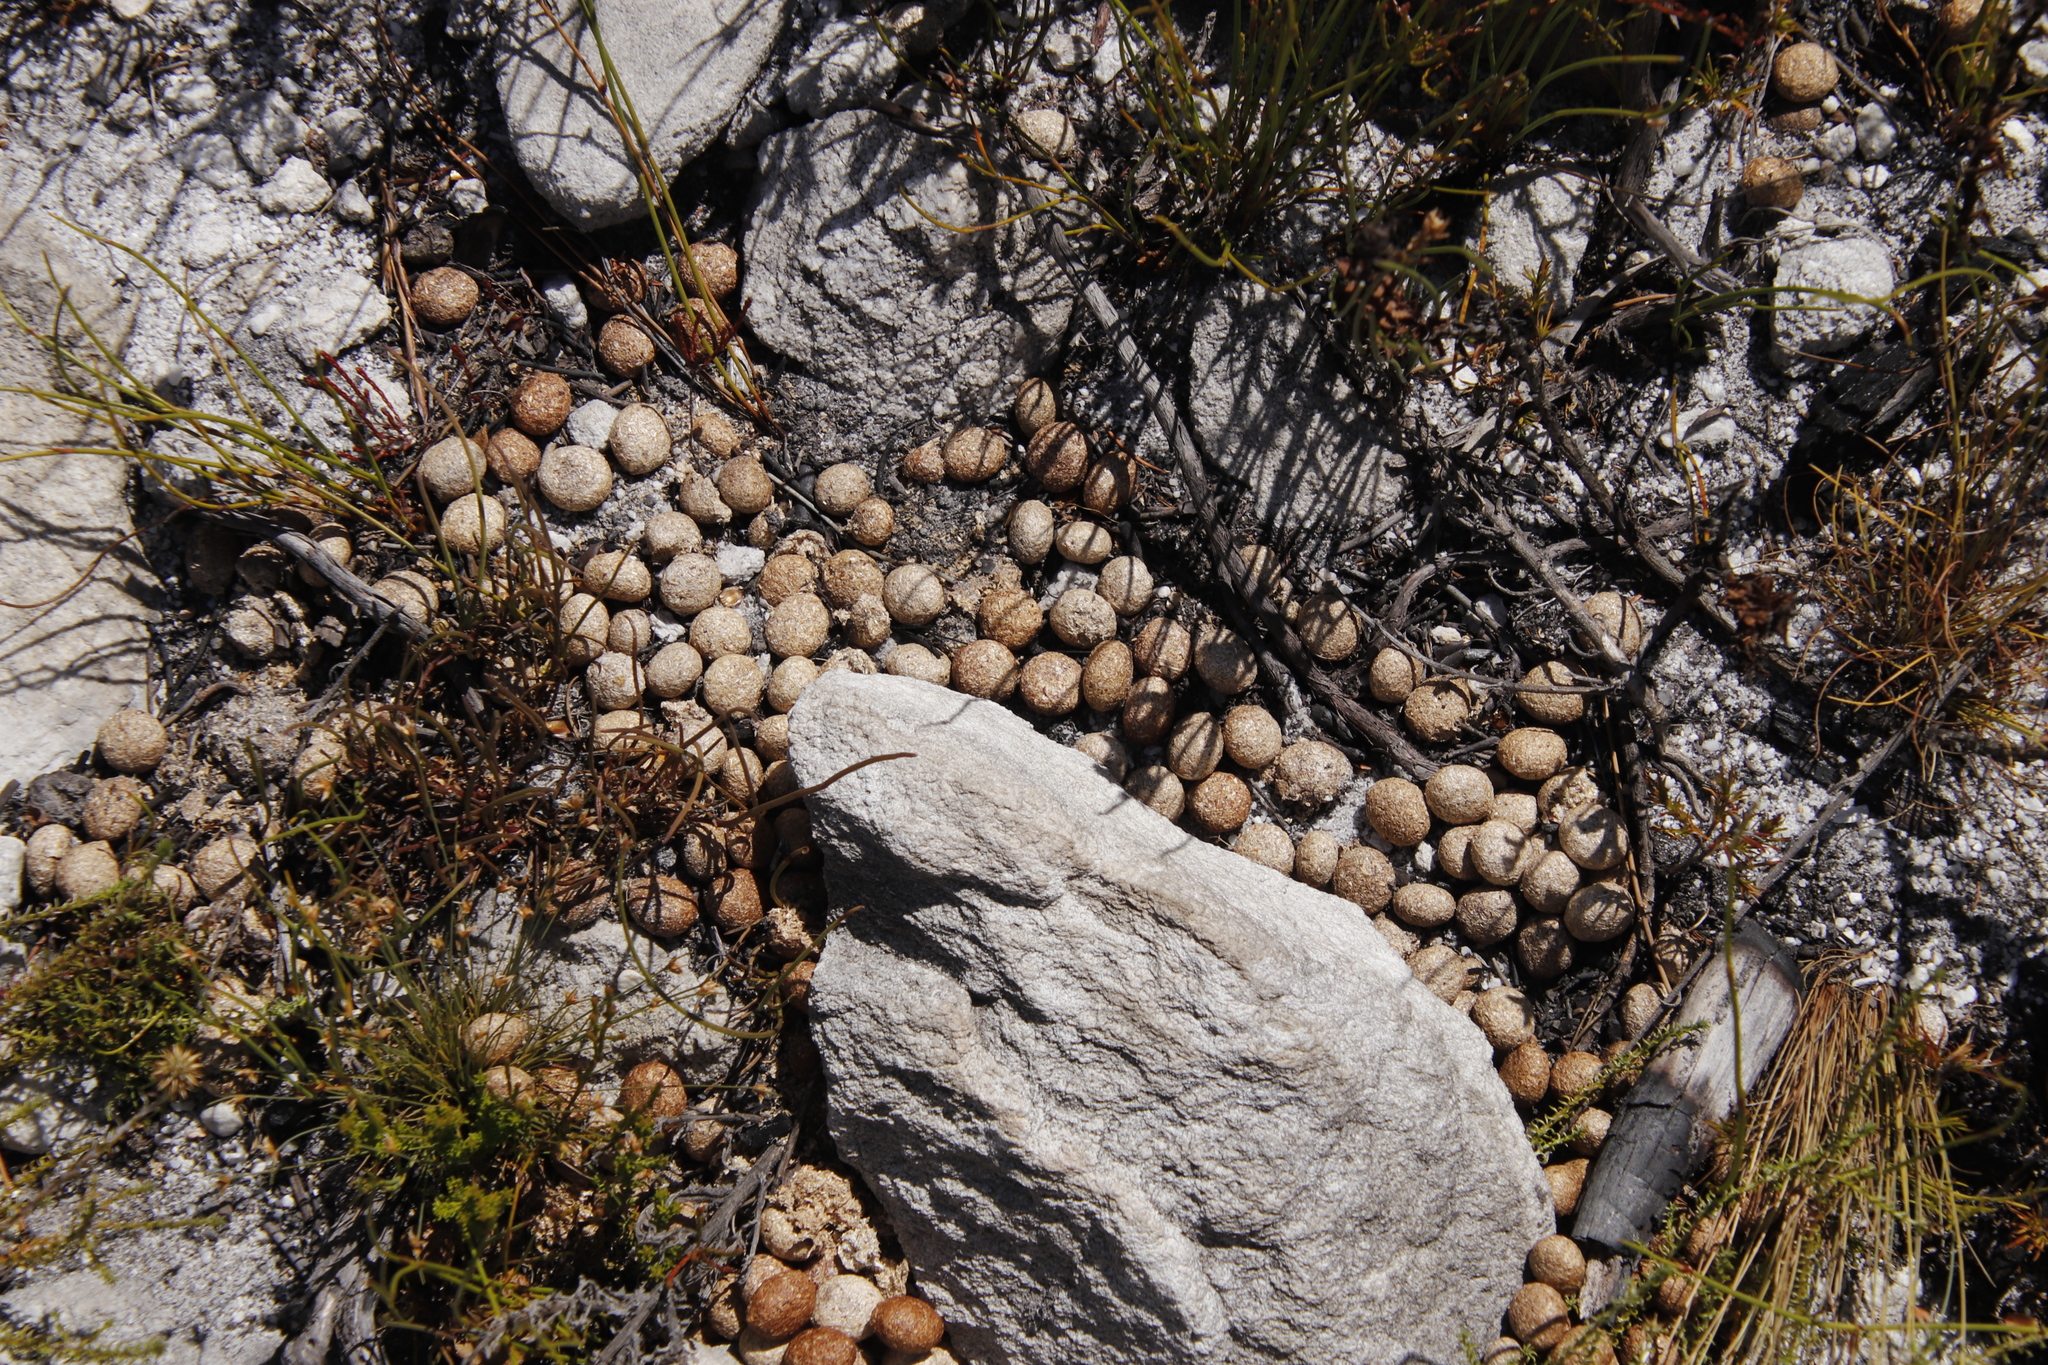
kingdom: Animalia
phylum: Chordata
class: Mammalia
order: Lagomorpha
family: Leporidae
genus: Pronolagus
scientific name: Pronolagus saundersiae
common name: Hewitt's red rock hare
